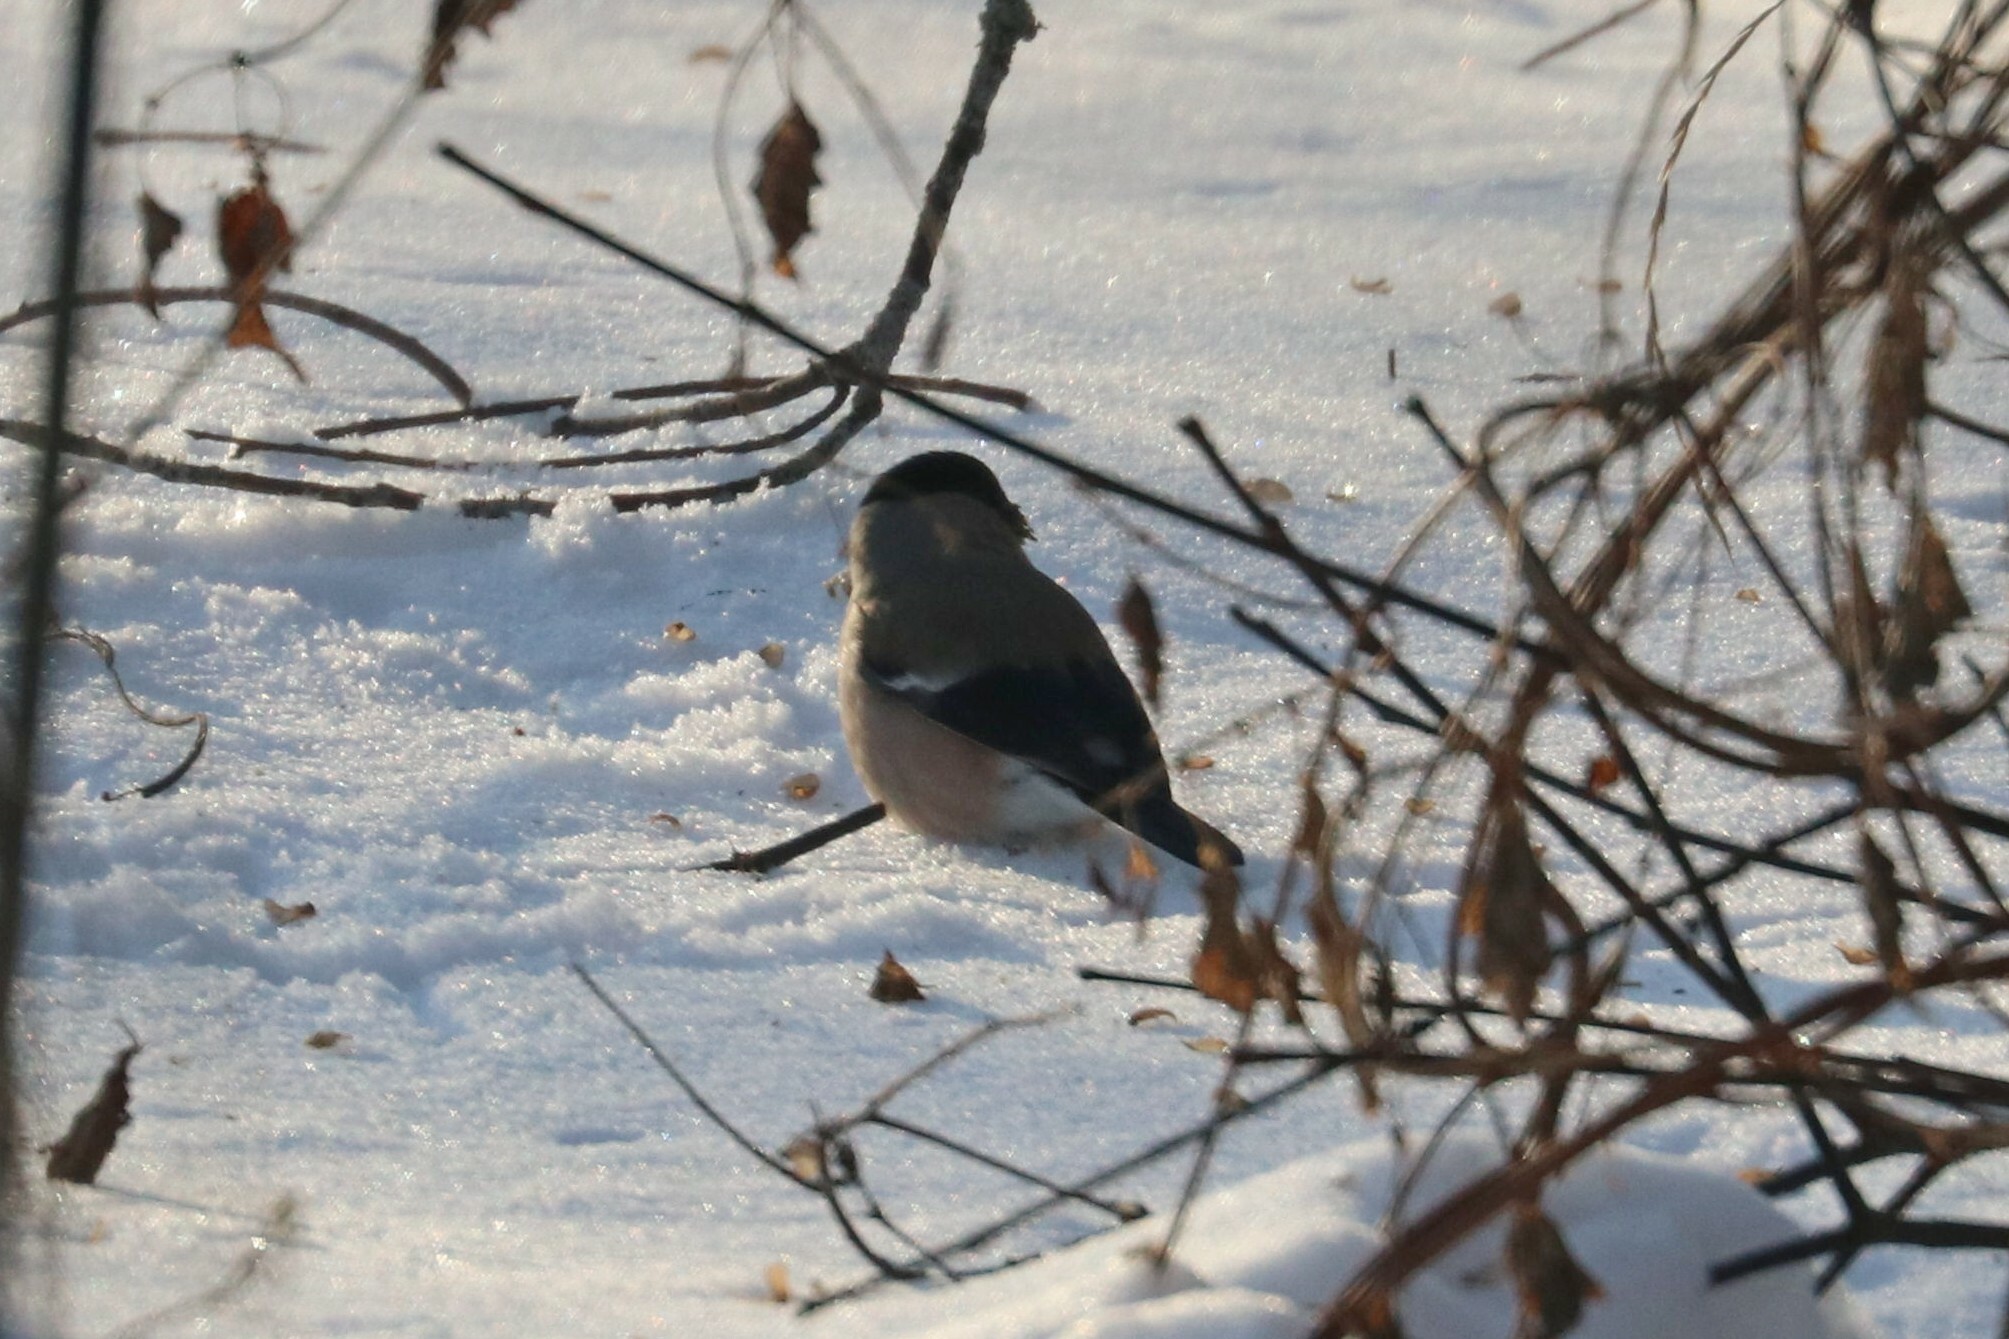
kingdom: Animalia
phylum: Chordata
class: Aves
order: Passeriformes
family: Fringillidae
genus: Pyrrhula
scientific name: Pyrrhula pyrrhula
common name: Eurasian bullfinch
